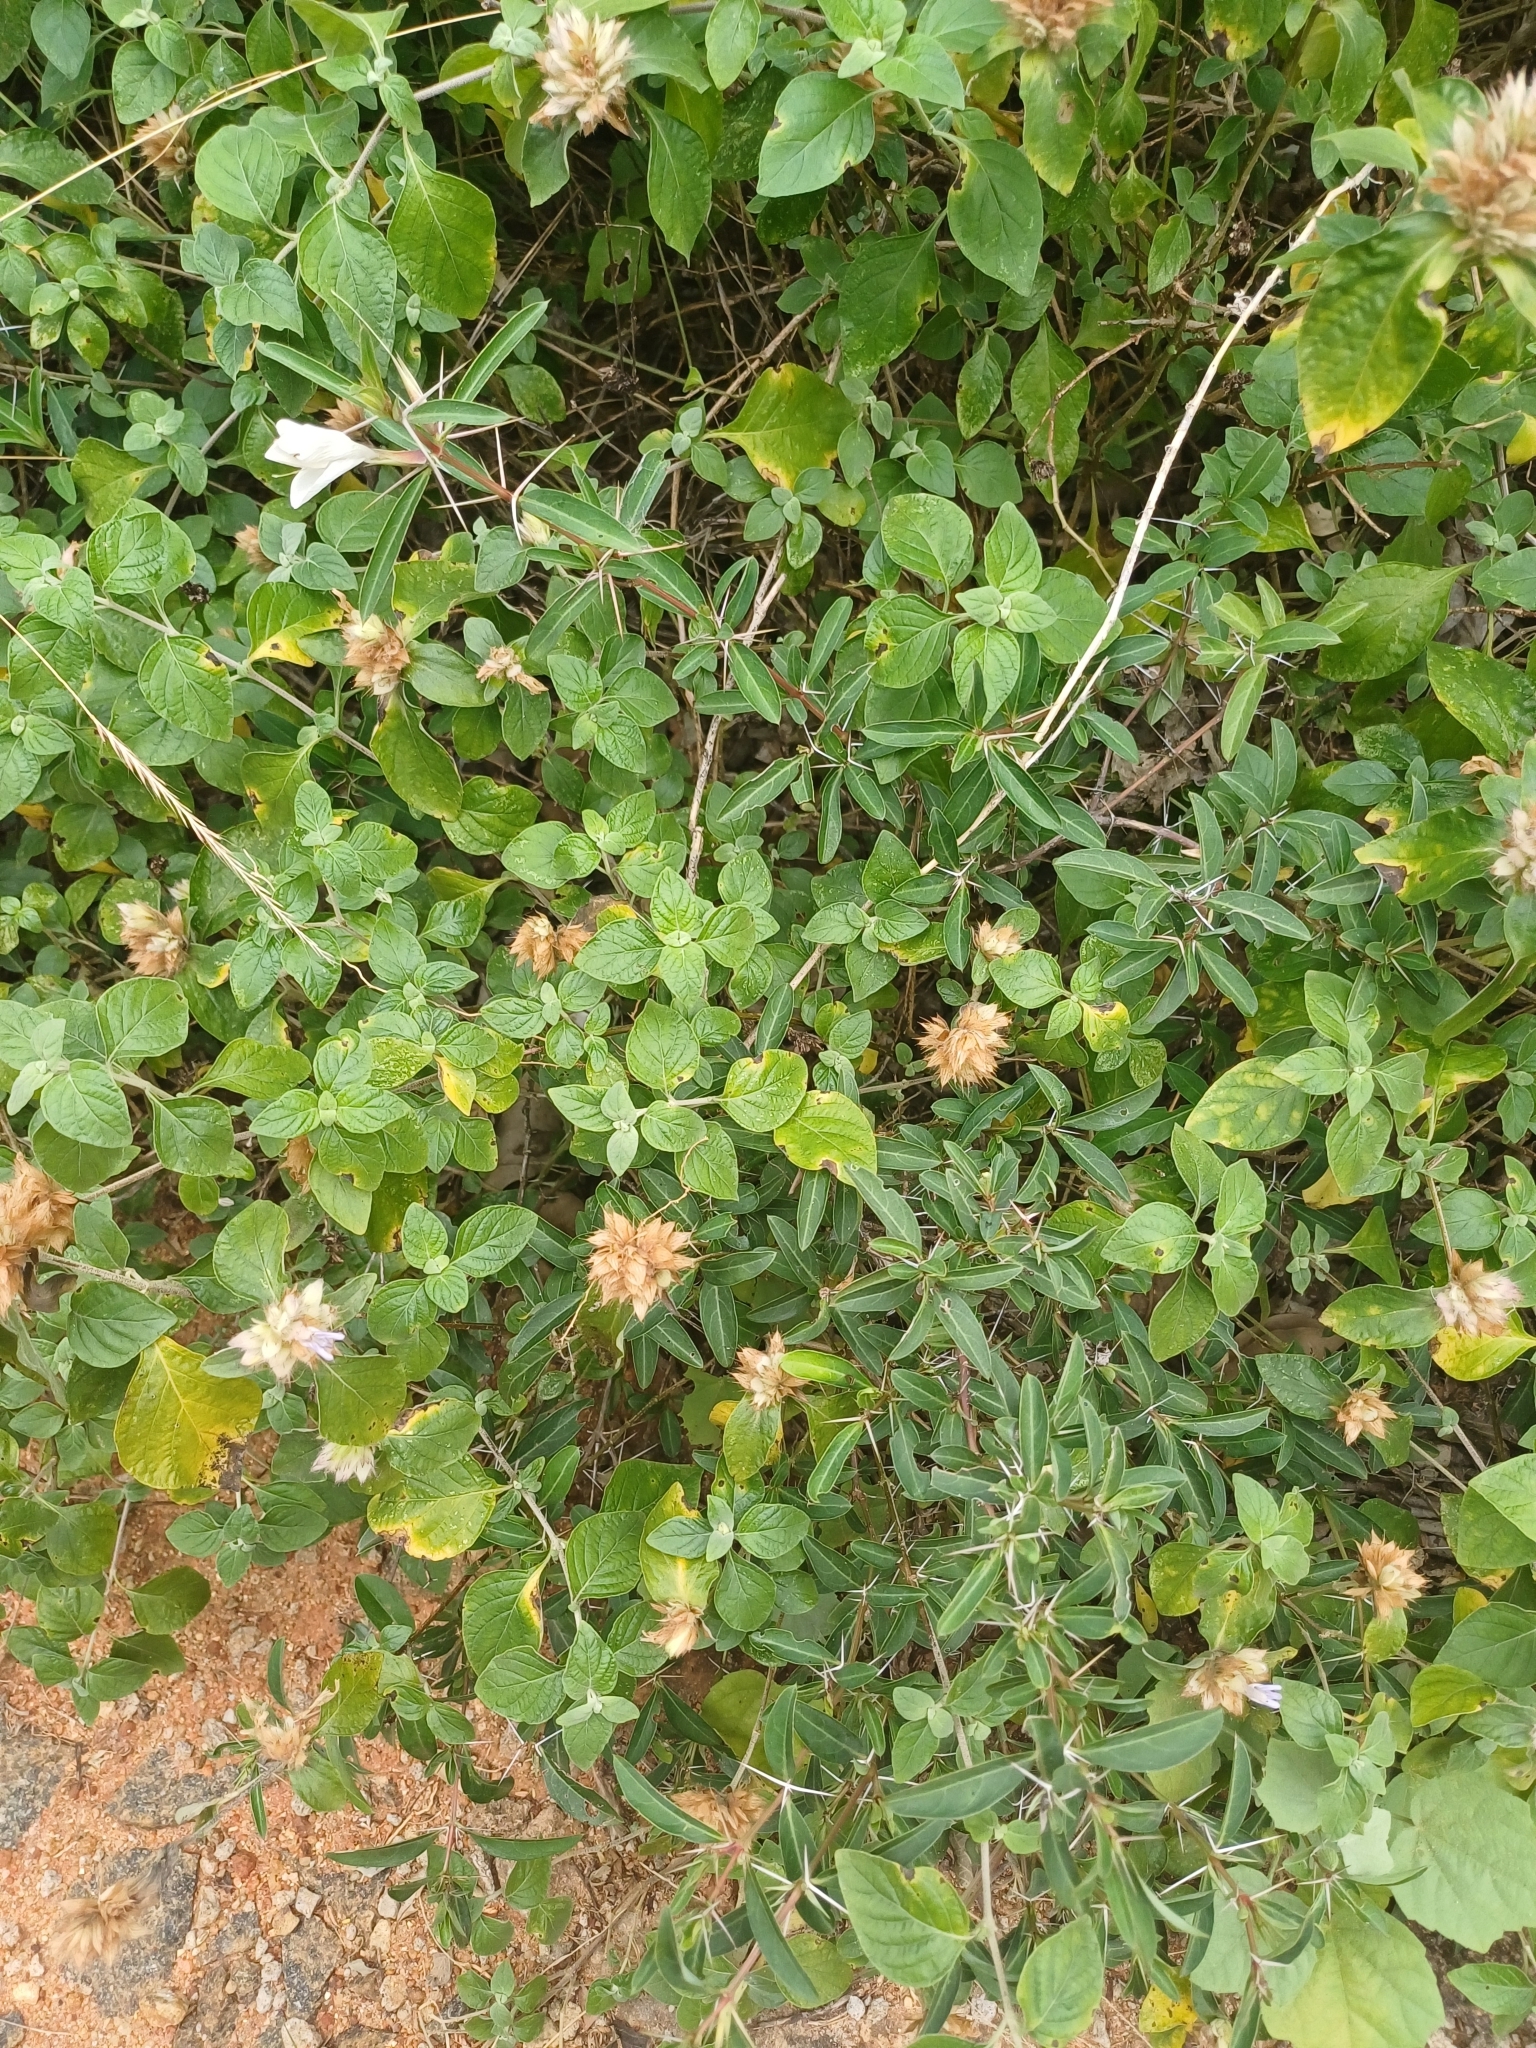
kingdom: Plantae
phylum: Tracheophyta
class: Magnoliopsida
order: Lamiales
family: Acanthaceae
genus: Barleria
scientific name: Barleria cuspidata
